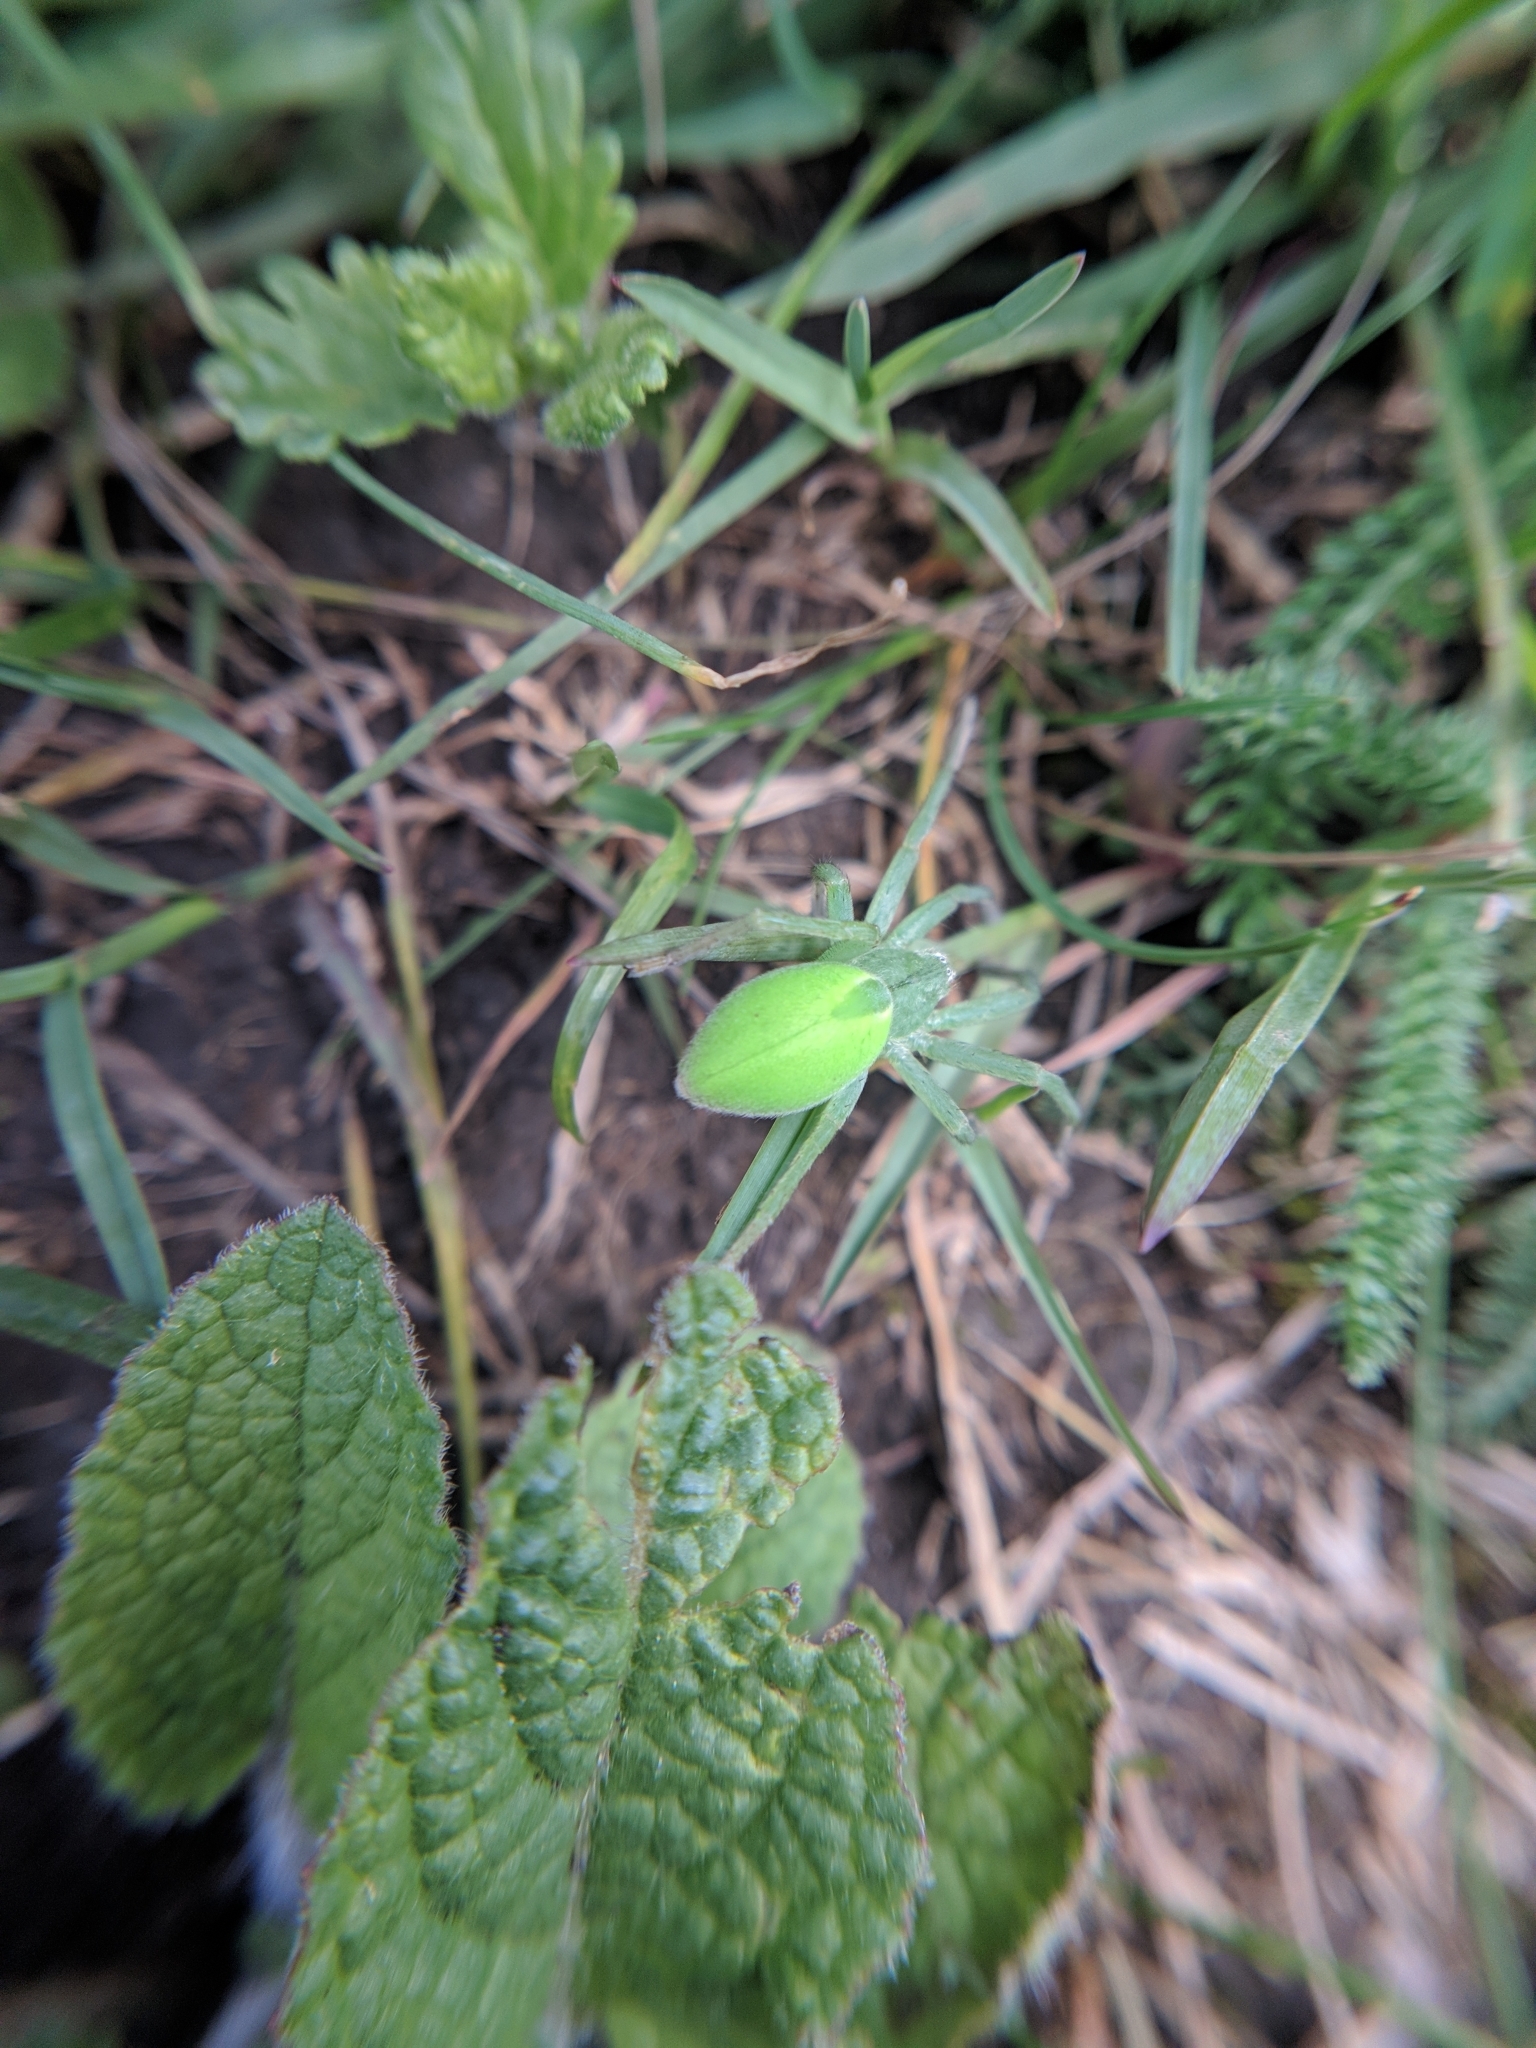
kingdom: Animalia
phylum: Arthropoda
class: Arachnida
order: Araneae
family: Sparassidae
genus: Micrommata
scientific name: Micrommata virescens
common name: Green spider
